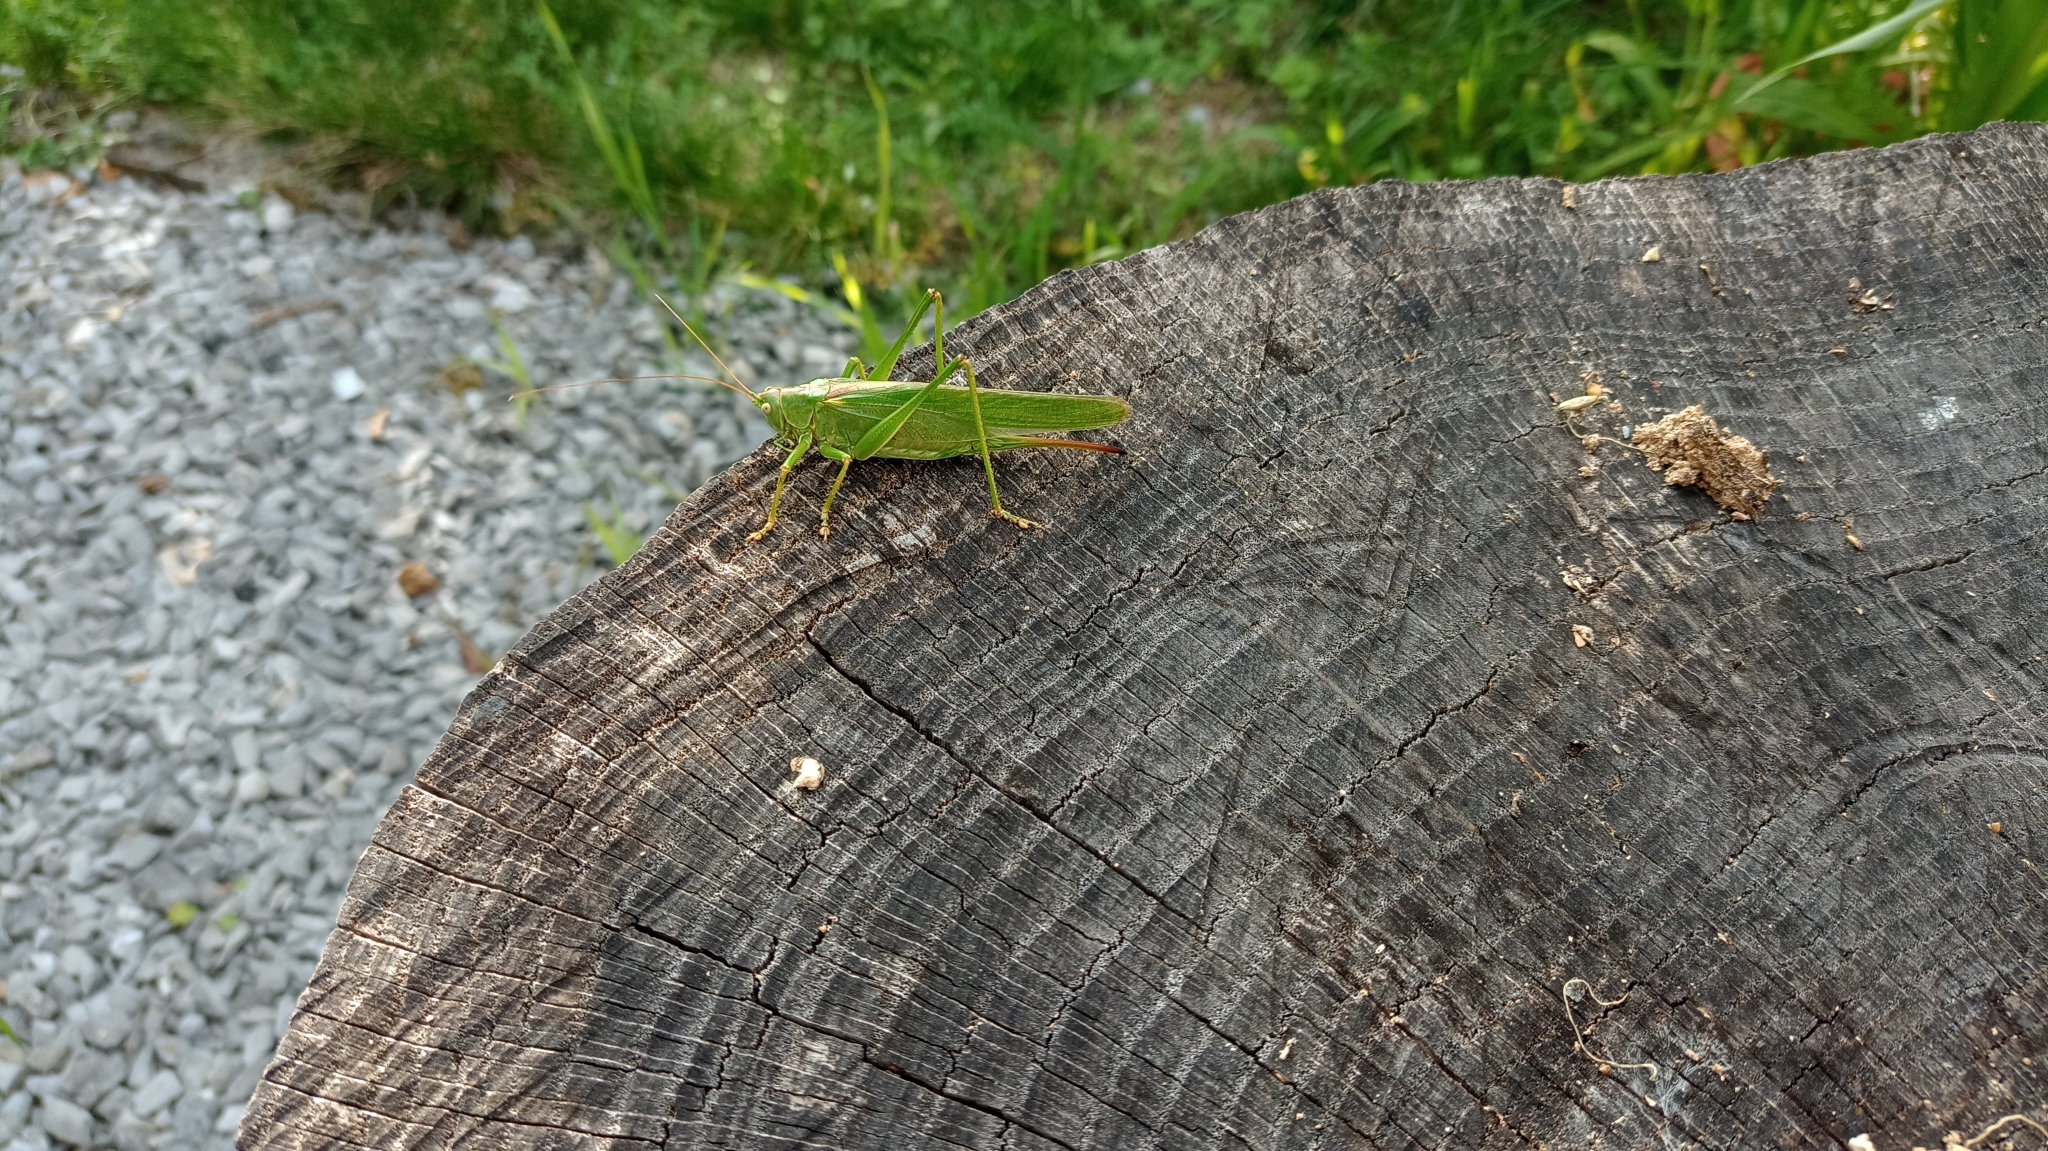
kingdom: Animalia
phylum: Arthropoda
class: Insecta
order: Orthoptera
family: Tettigoniidae
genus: Tettigonia
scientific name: Tettigonia viridissima
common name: Great green bush-cricket
